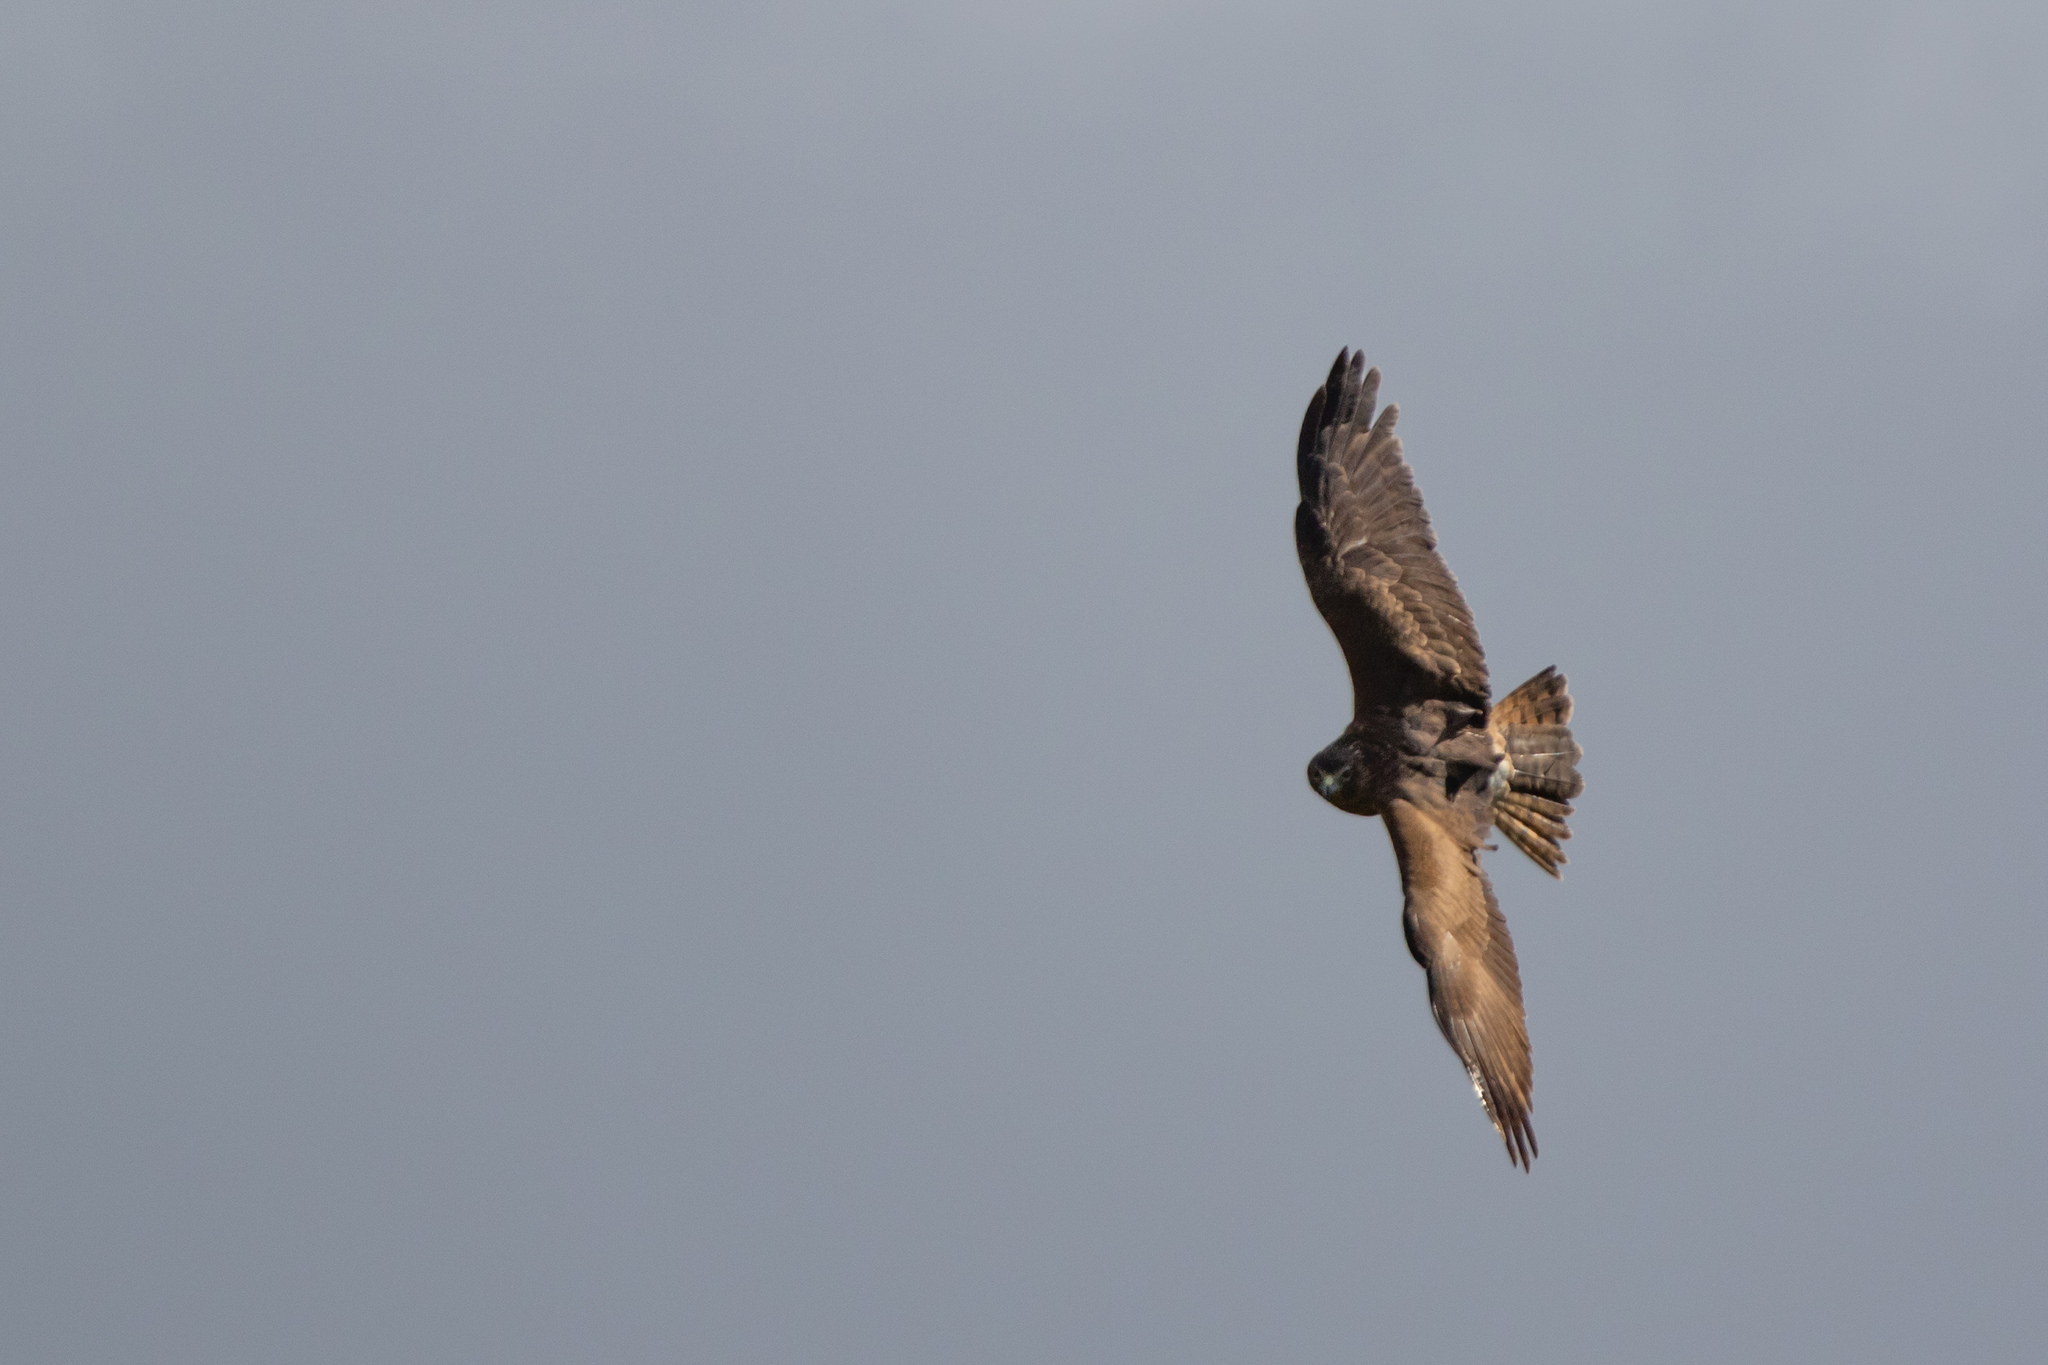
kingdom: Animalia
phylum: Chordata
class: Aves
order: Accipitriformes
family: Accipitridae
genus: Circus
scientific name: Circus approximans
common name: Swamp harrier
